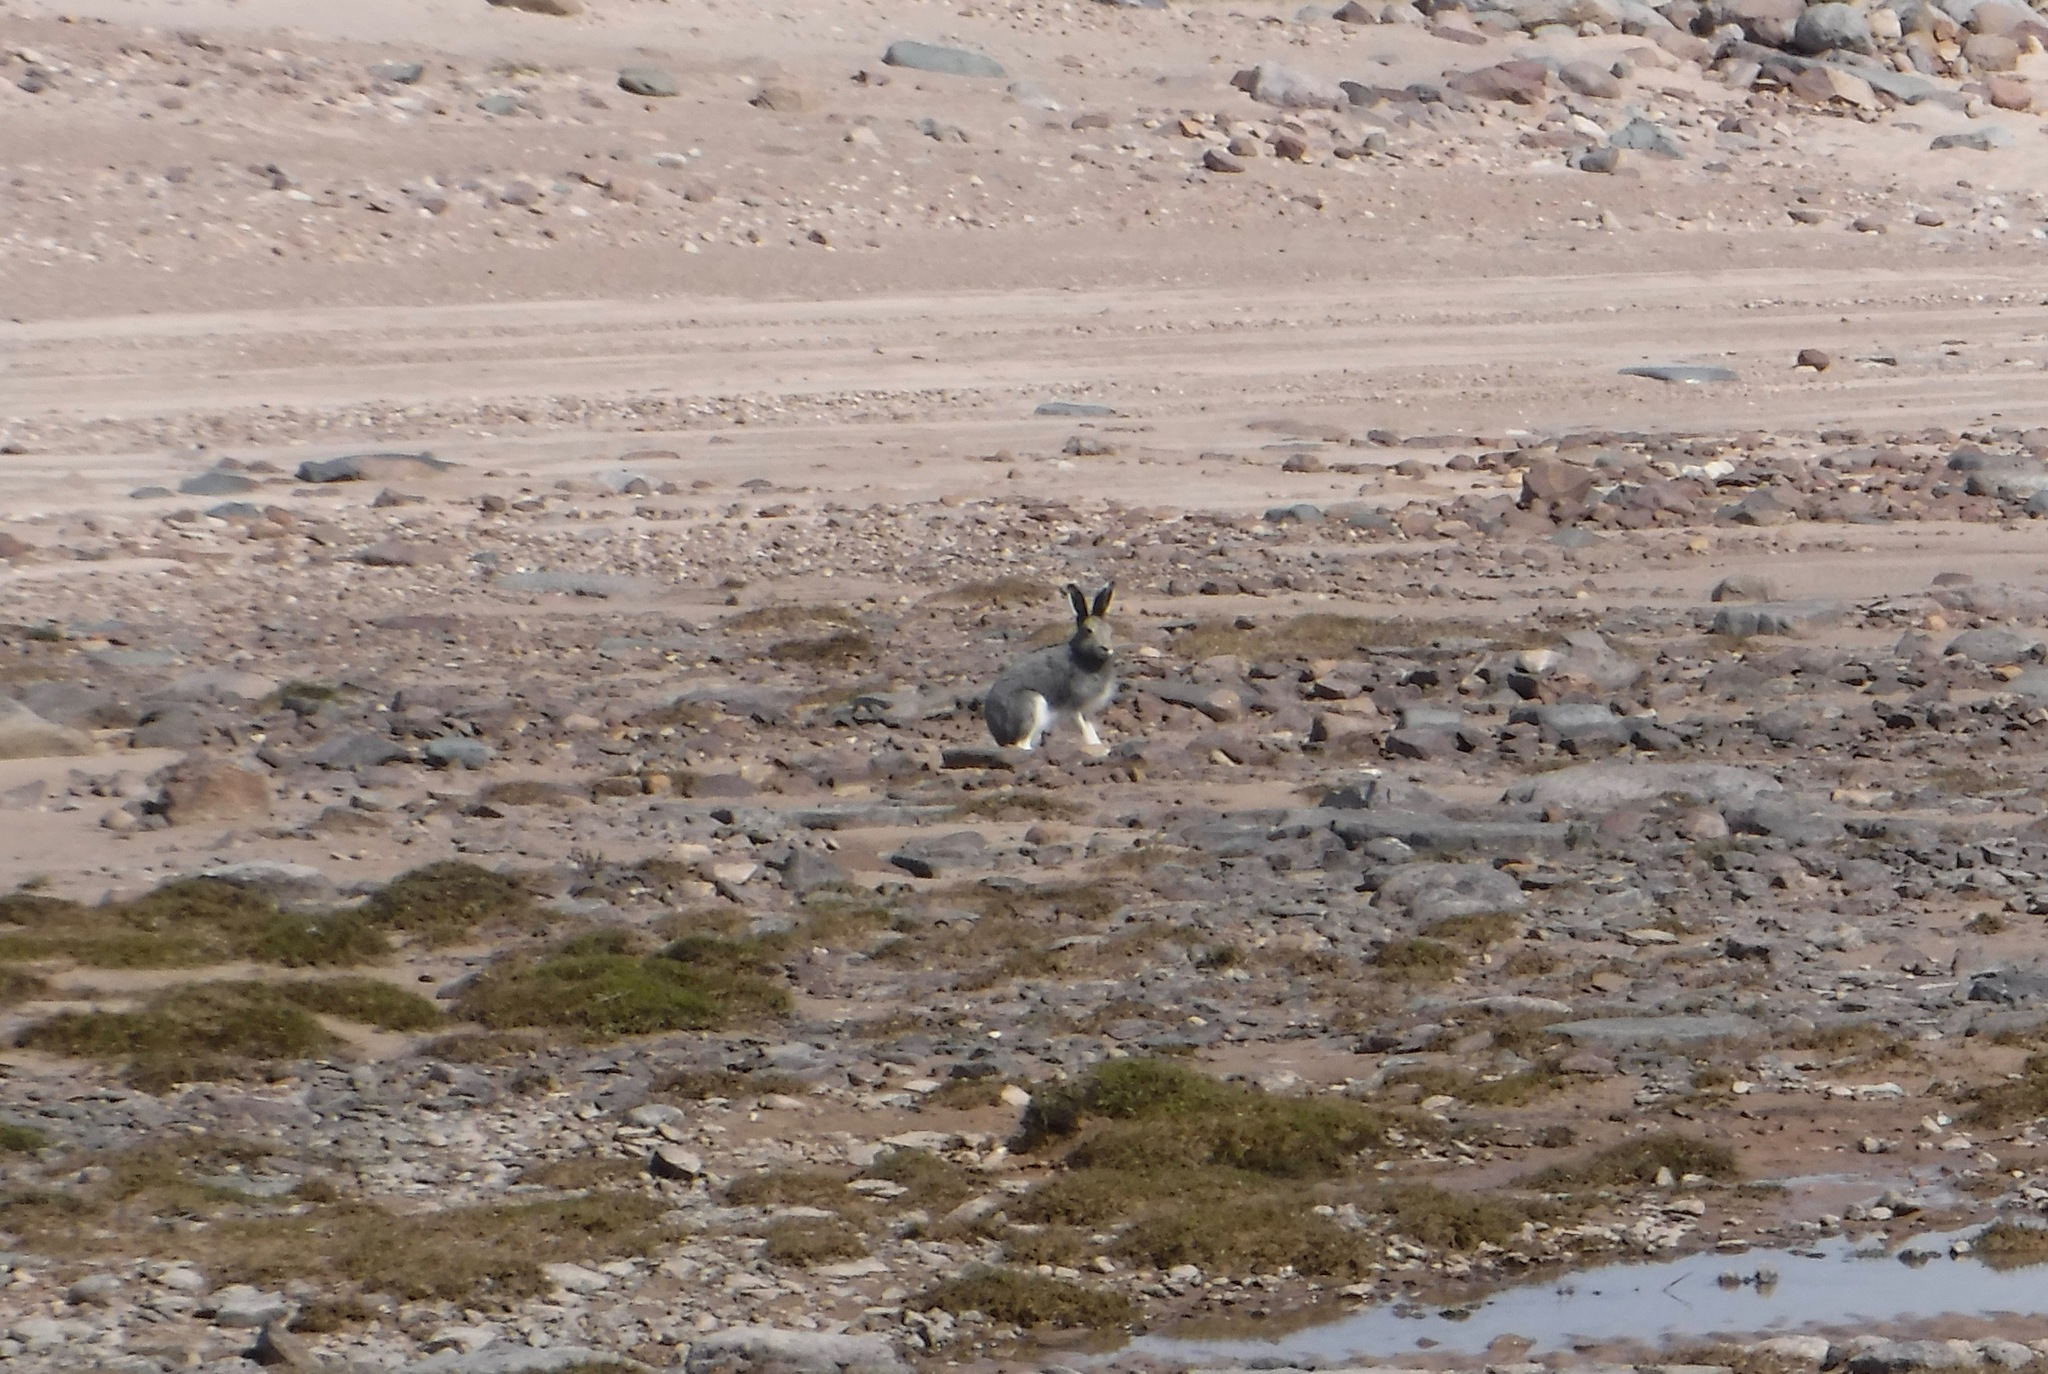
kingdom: Animalia
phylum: Chordata
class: Mammalia
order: Lagomorpha
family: Leporidae
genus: Lepus
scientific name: Lepus arcticus
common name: Arctic hare
